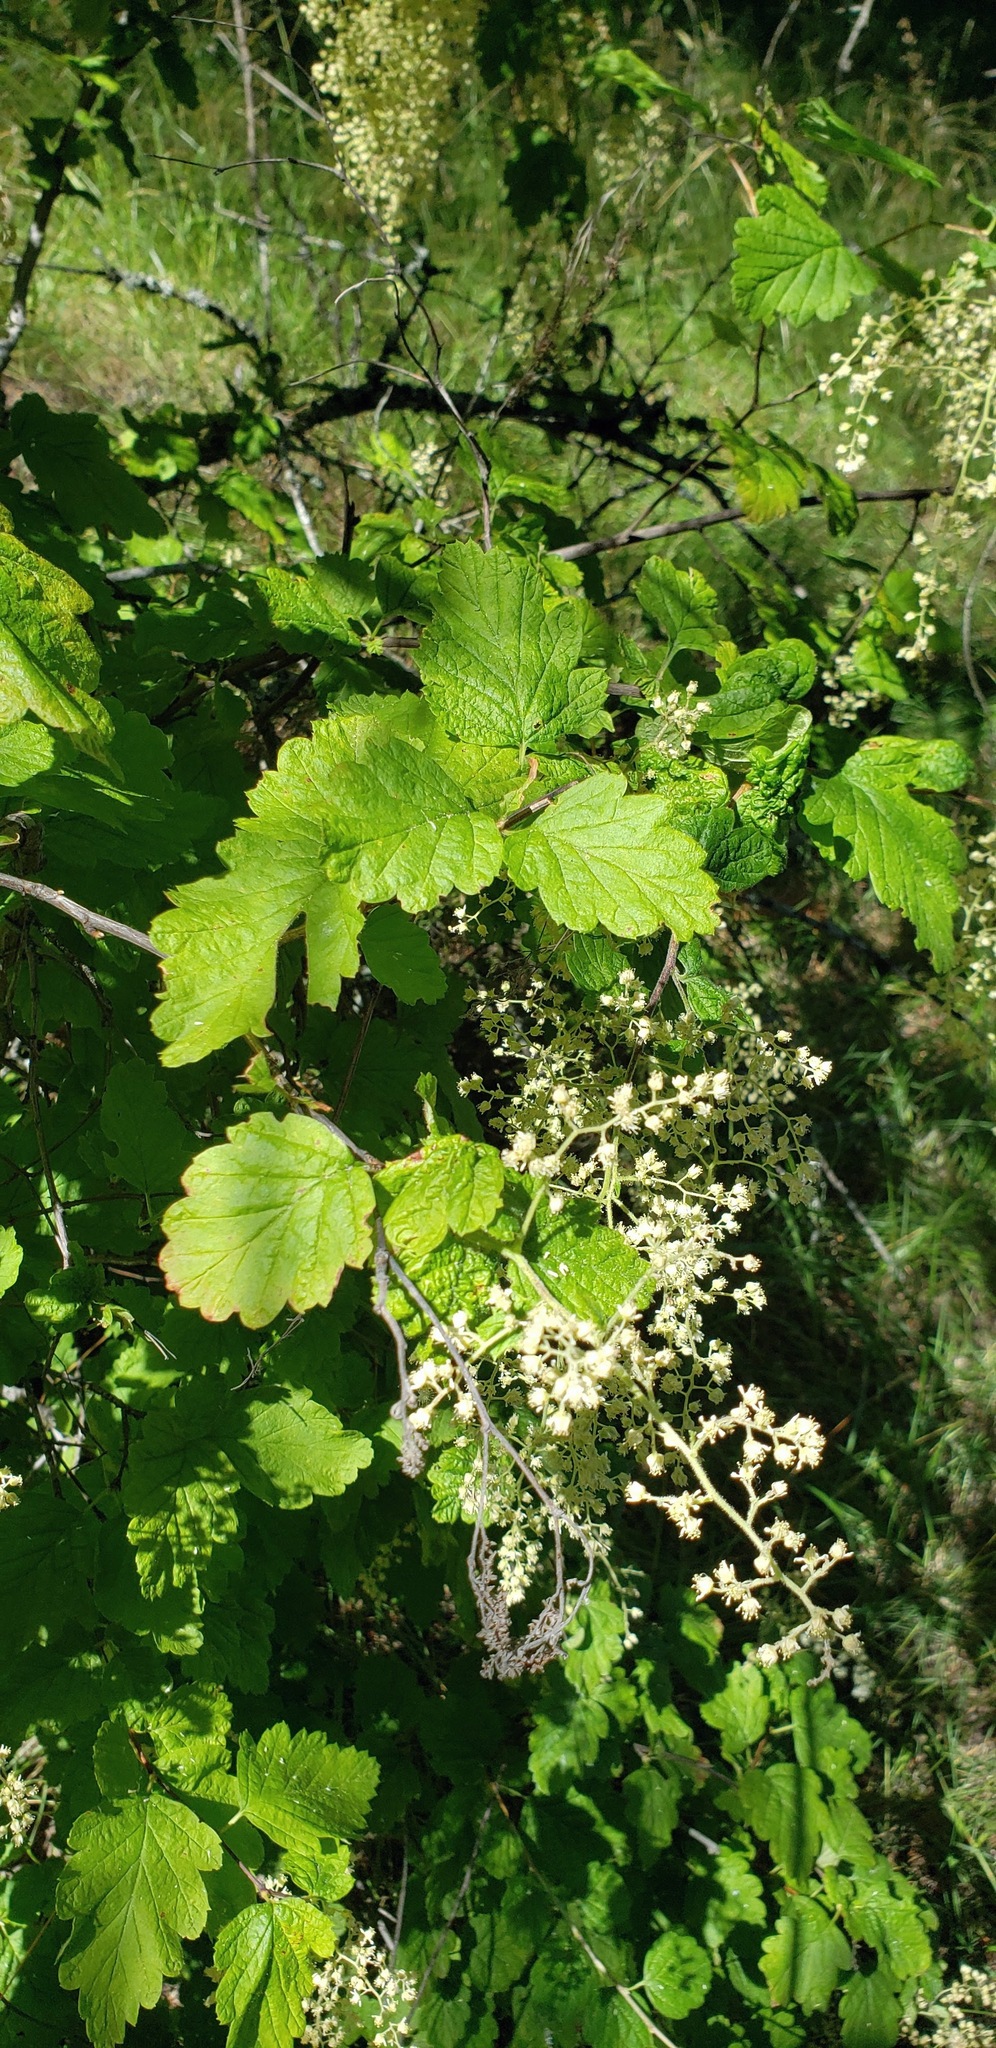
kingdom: Plantae
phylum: Tracheophyta
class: Magnoliopsida
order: Rosales
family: Rosaceae
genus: Holodiscus
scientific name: Holodiscus discolor
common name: Oceanspray
